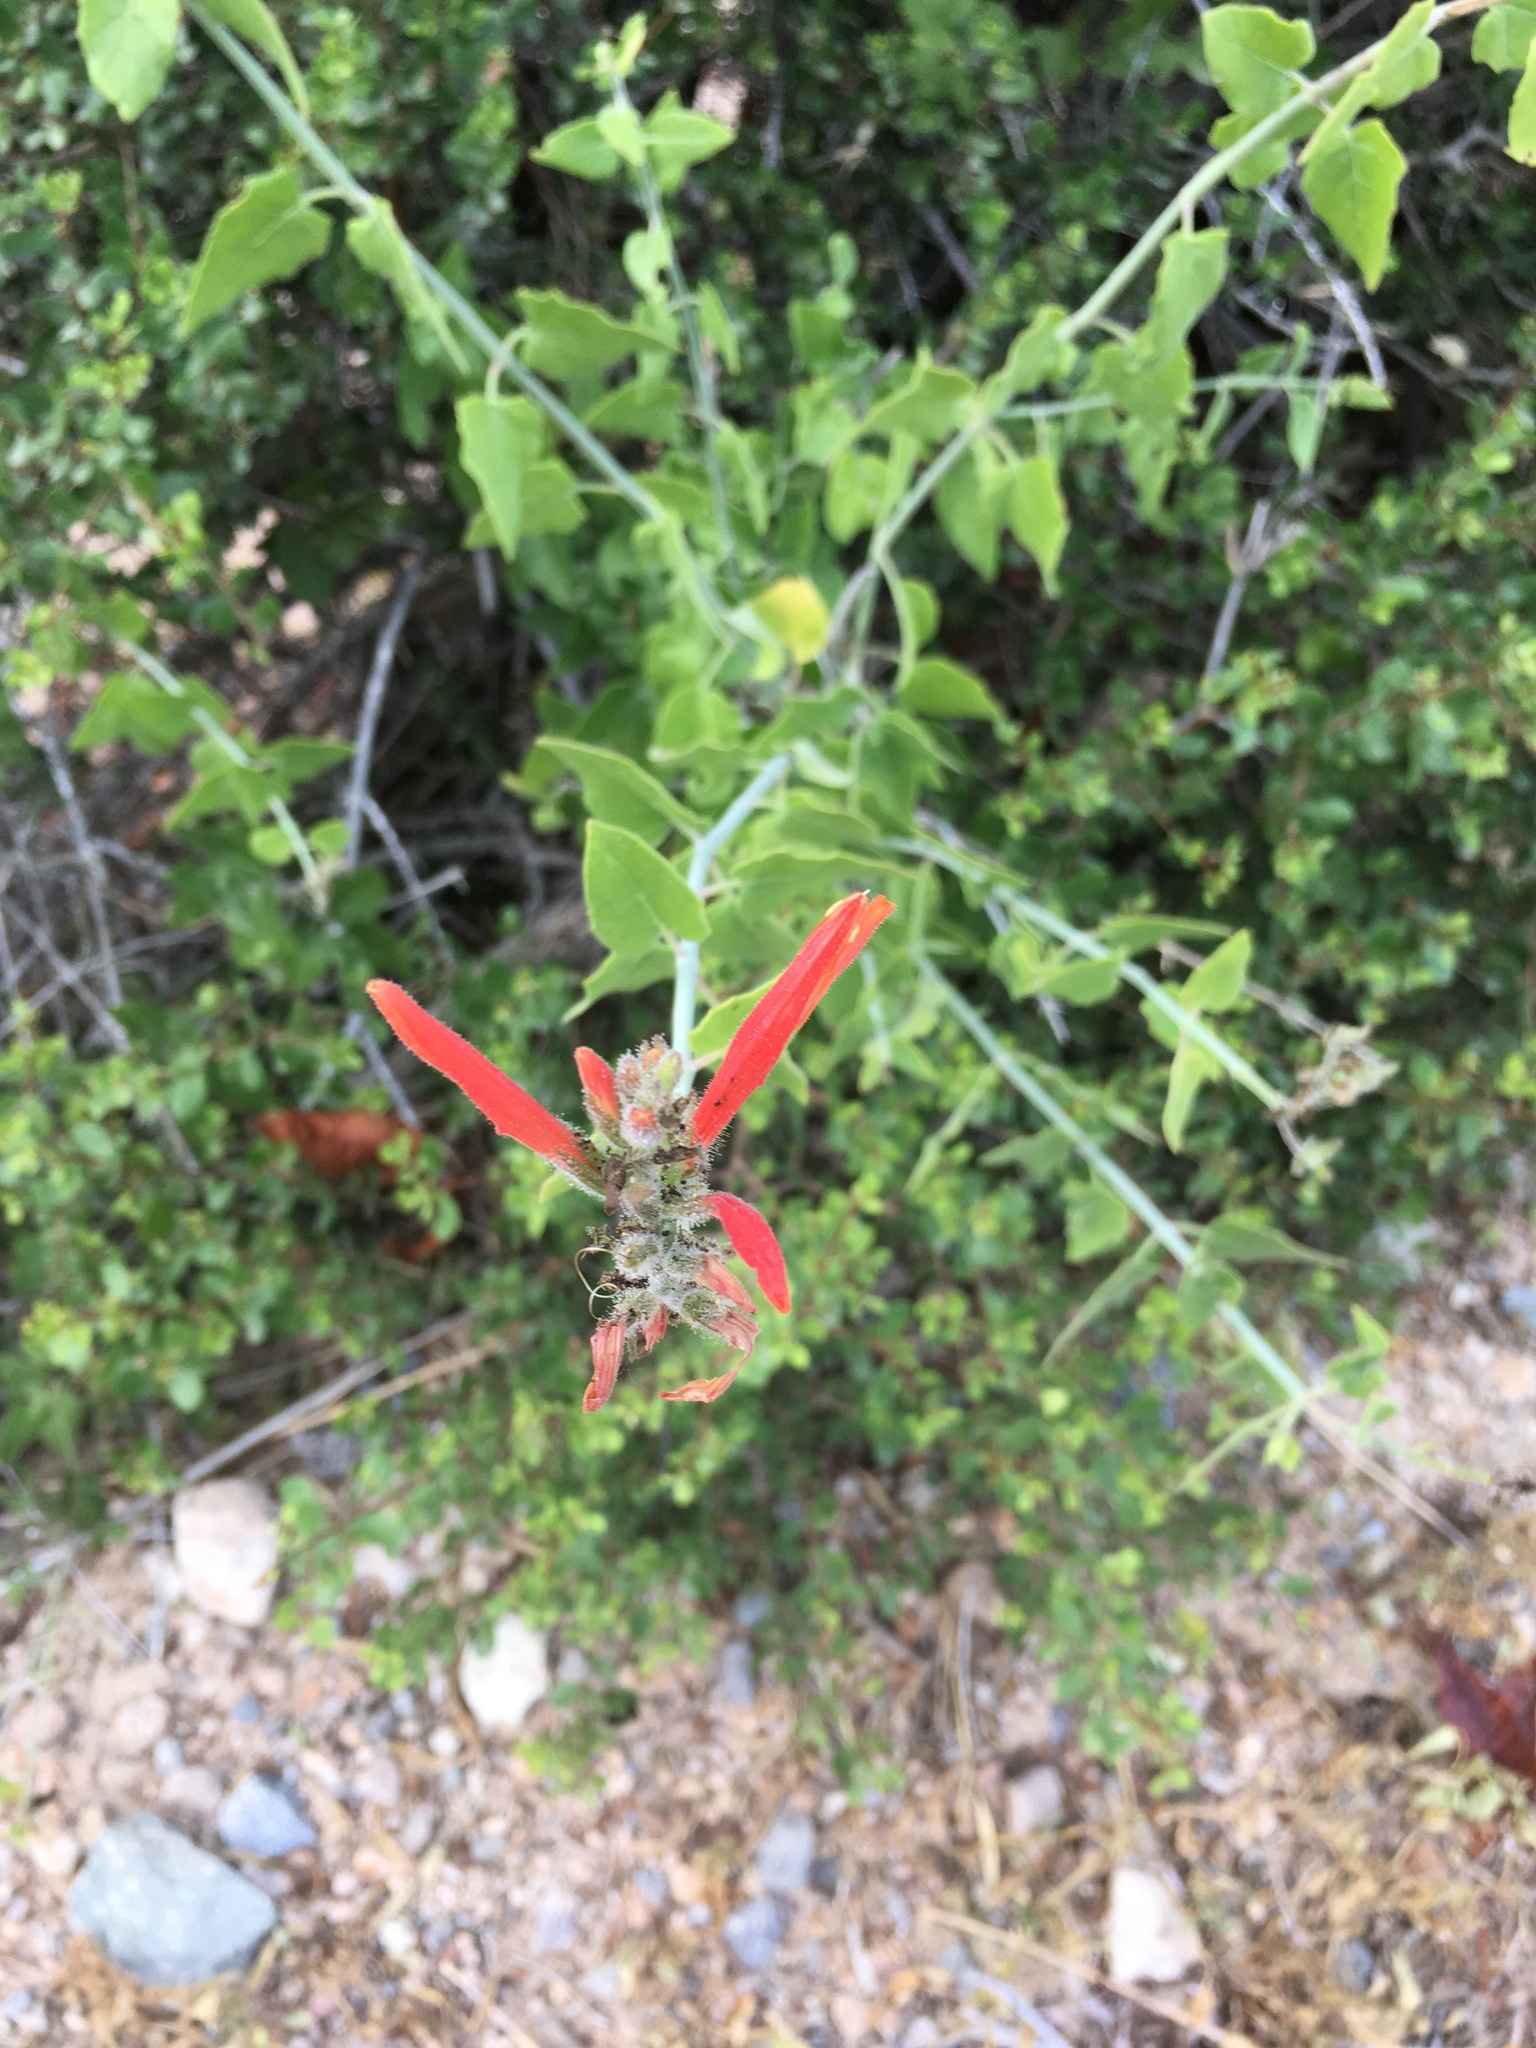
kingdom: Plantae
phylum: Tracheophyta
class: Magnoliopsida
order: Lamiales
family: Acanthaceae
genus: Justicia
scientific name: Justicia californica
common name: Chuparosa-honeysuckle
